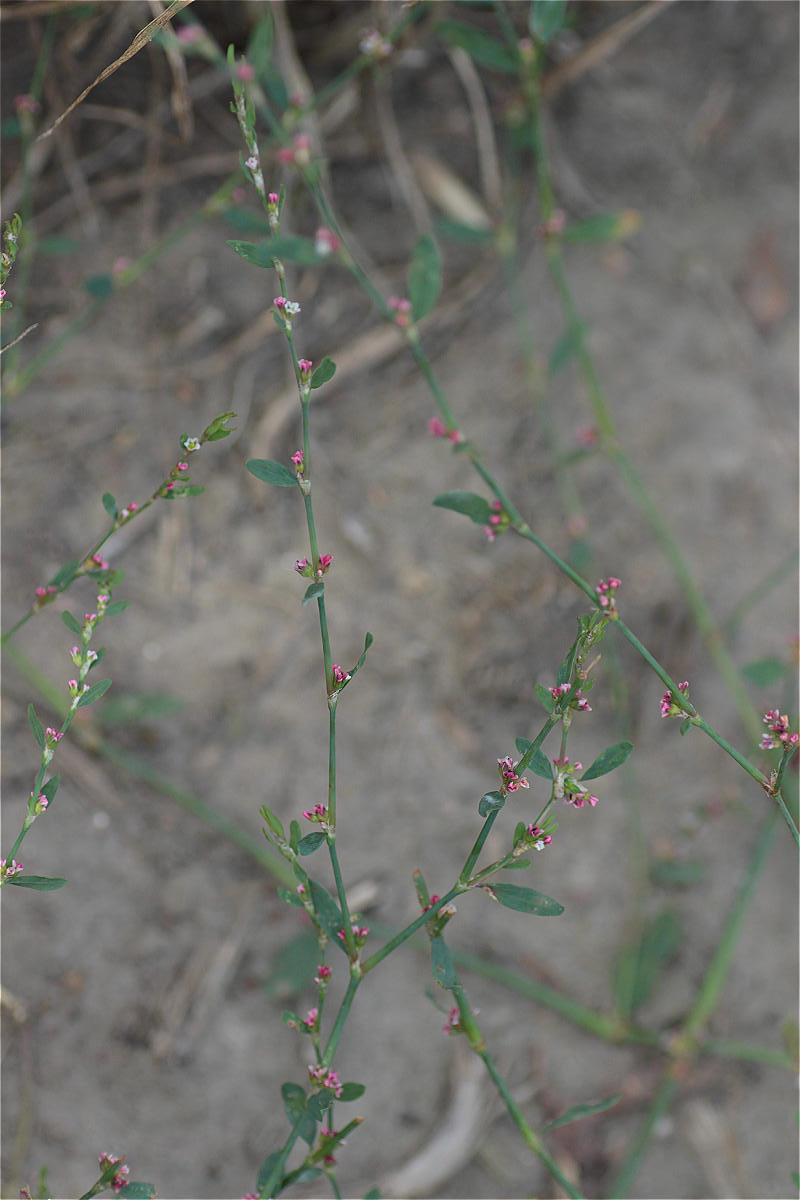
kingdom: Plantae
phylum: Tracheophyta
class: Magnoliopsida
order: Caryophyllales
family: Polygonaceae
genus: Polygonum
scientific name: Polygonum aviculare
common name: Prostrate knotweed
